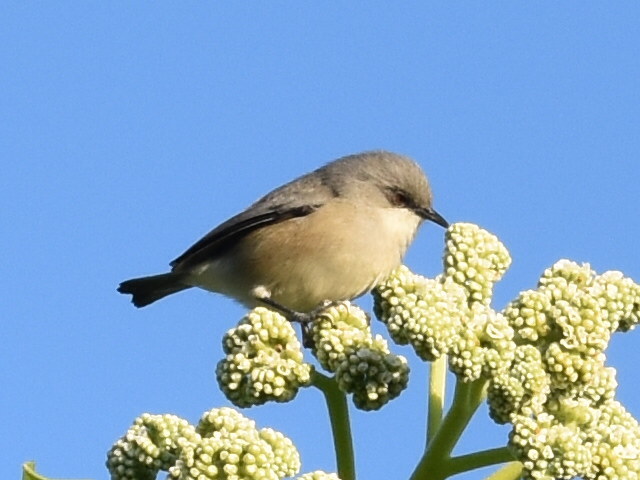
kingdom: Animalia
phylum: Chordata
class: Aves
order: Passeriformes
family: Zosteropidae
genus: Zosterops
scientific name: Zosterops mauritianus
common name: Mauritius gray white-eye
